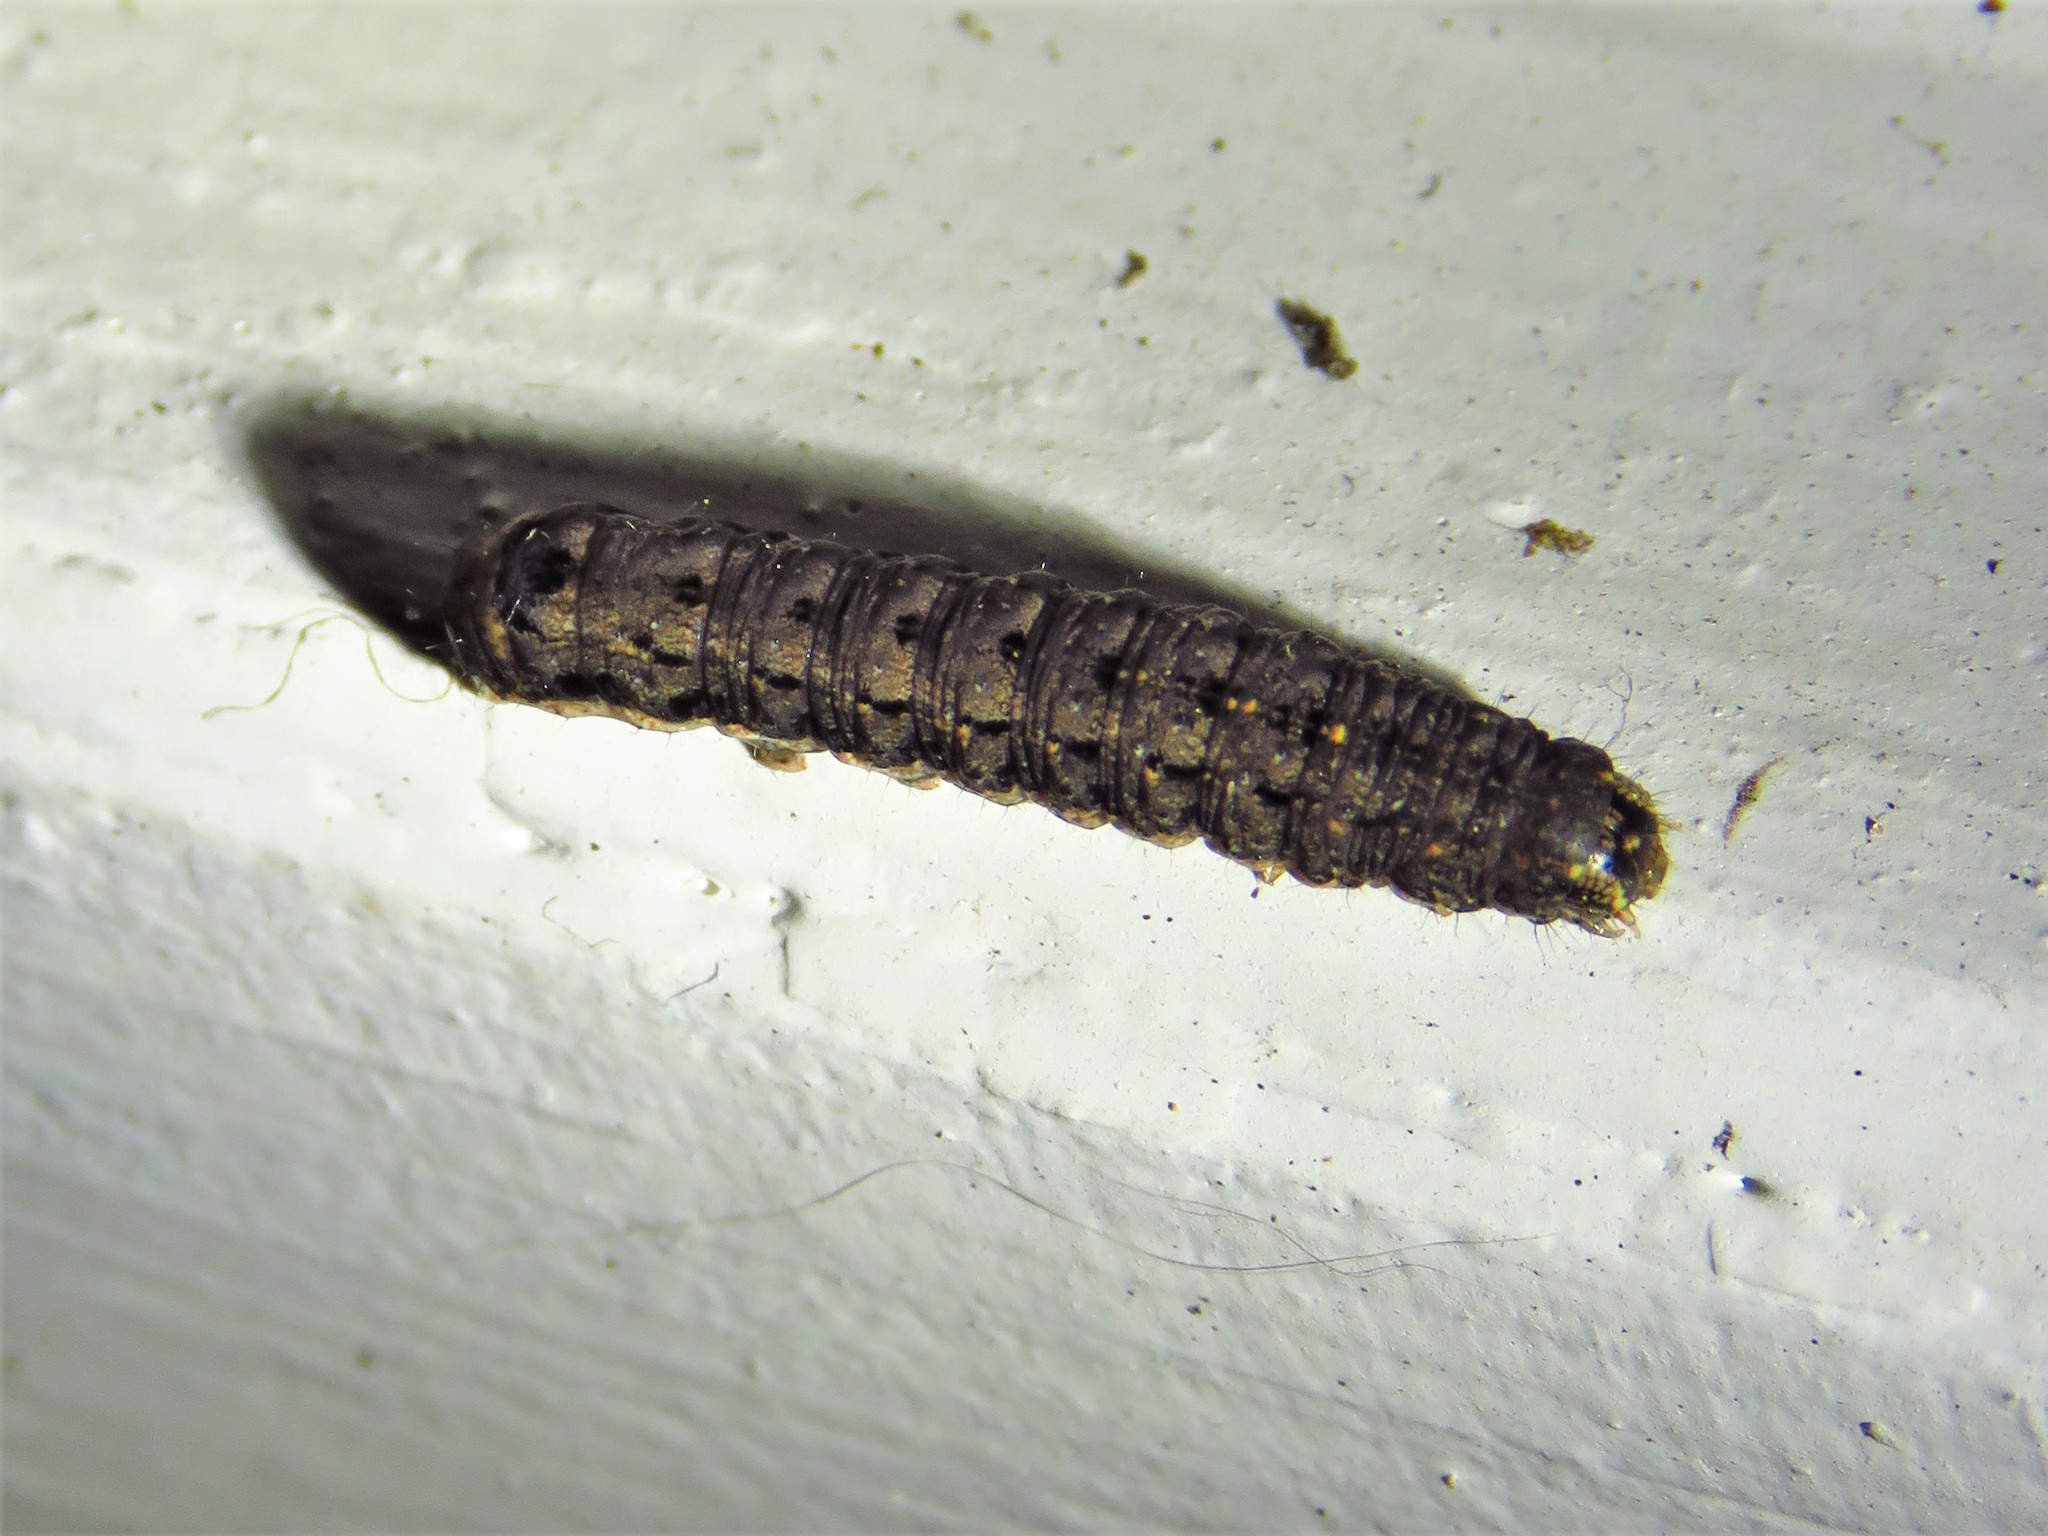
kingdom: Animalia
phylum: Arthropoda
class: Insecta
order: Lepidoptera
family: Noctuidae
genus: Peridroma
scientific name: Peridroma saucia
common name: Pearly underwing
